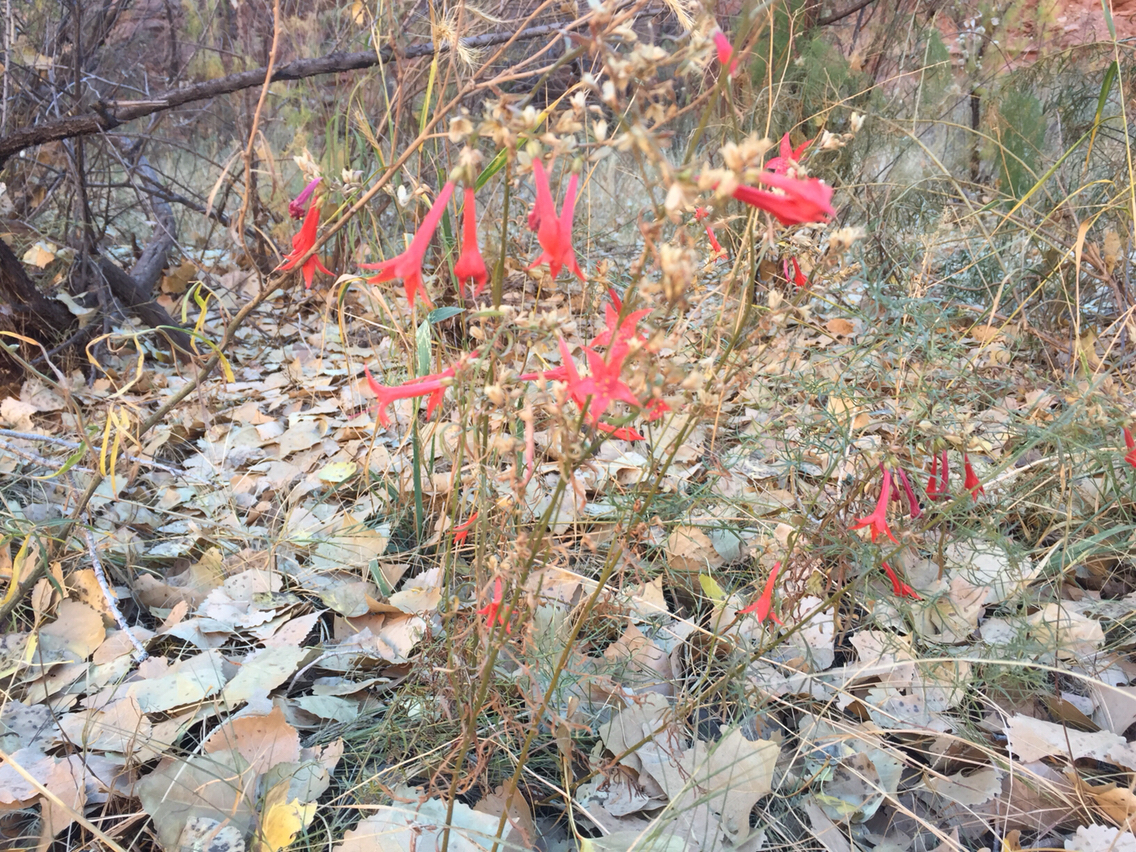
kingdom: Plantae
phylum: Tracheophyta
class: Magnoliopsida
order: Ericales
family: Polemoniaceae
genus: Ipomopsis
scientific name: Ipomopsis aggregata
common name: Scarlet gilia
